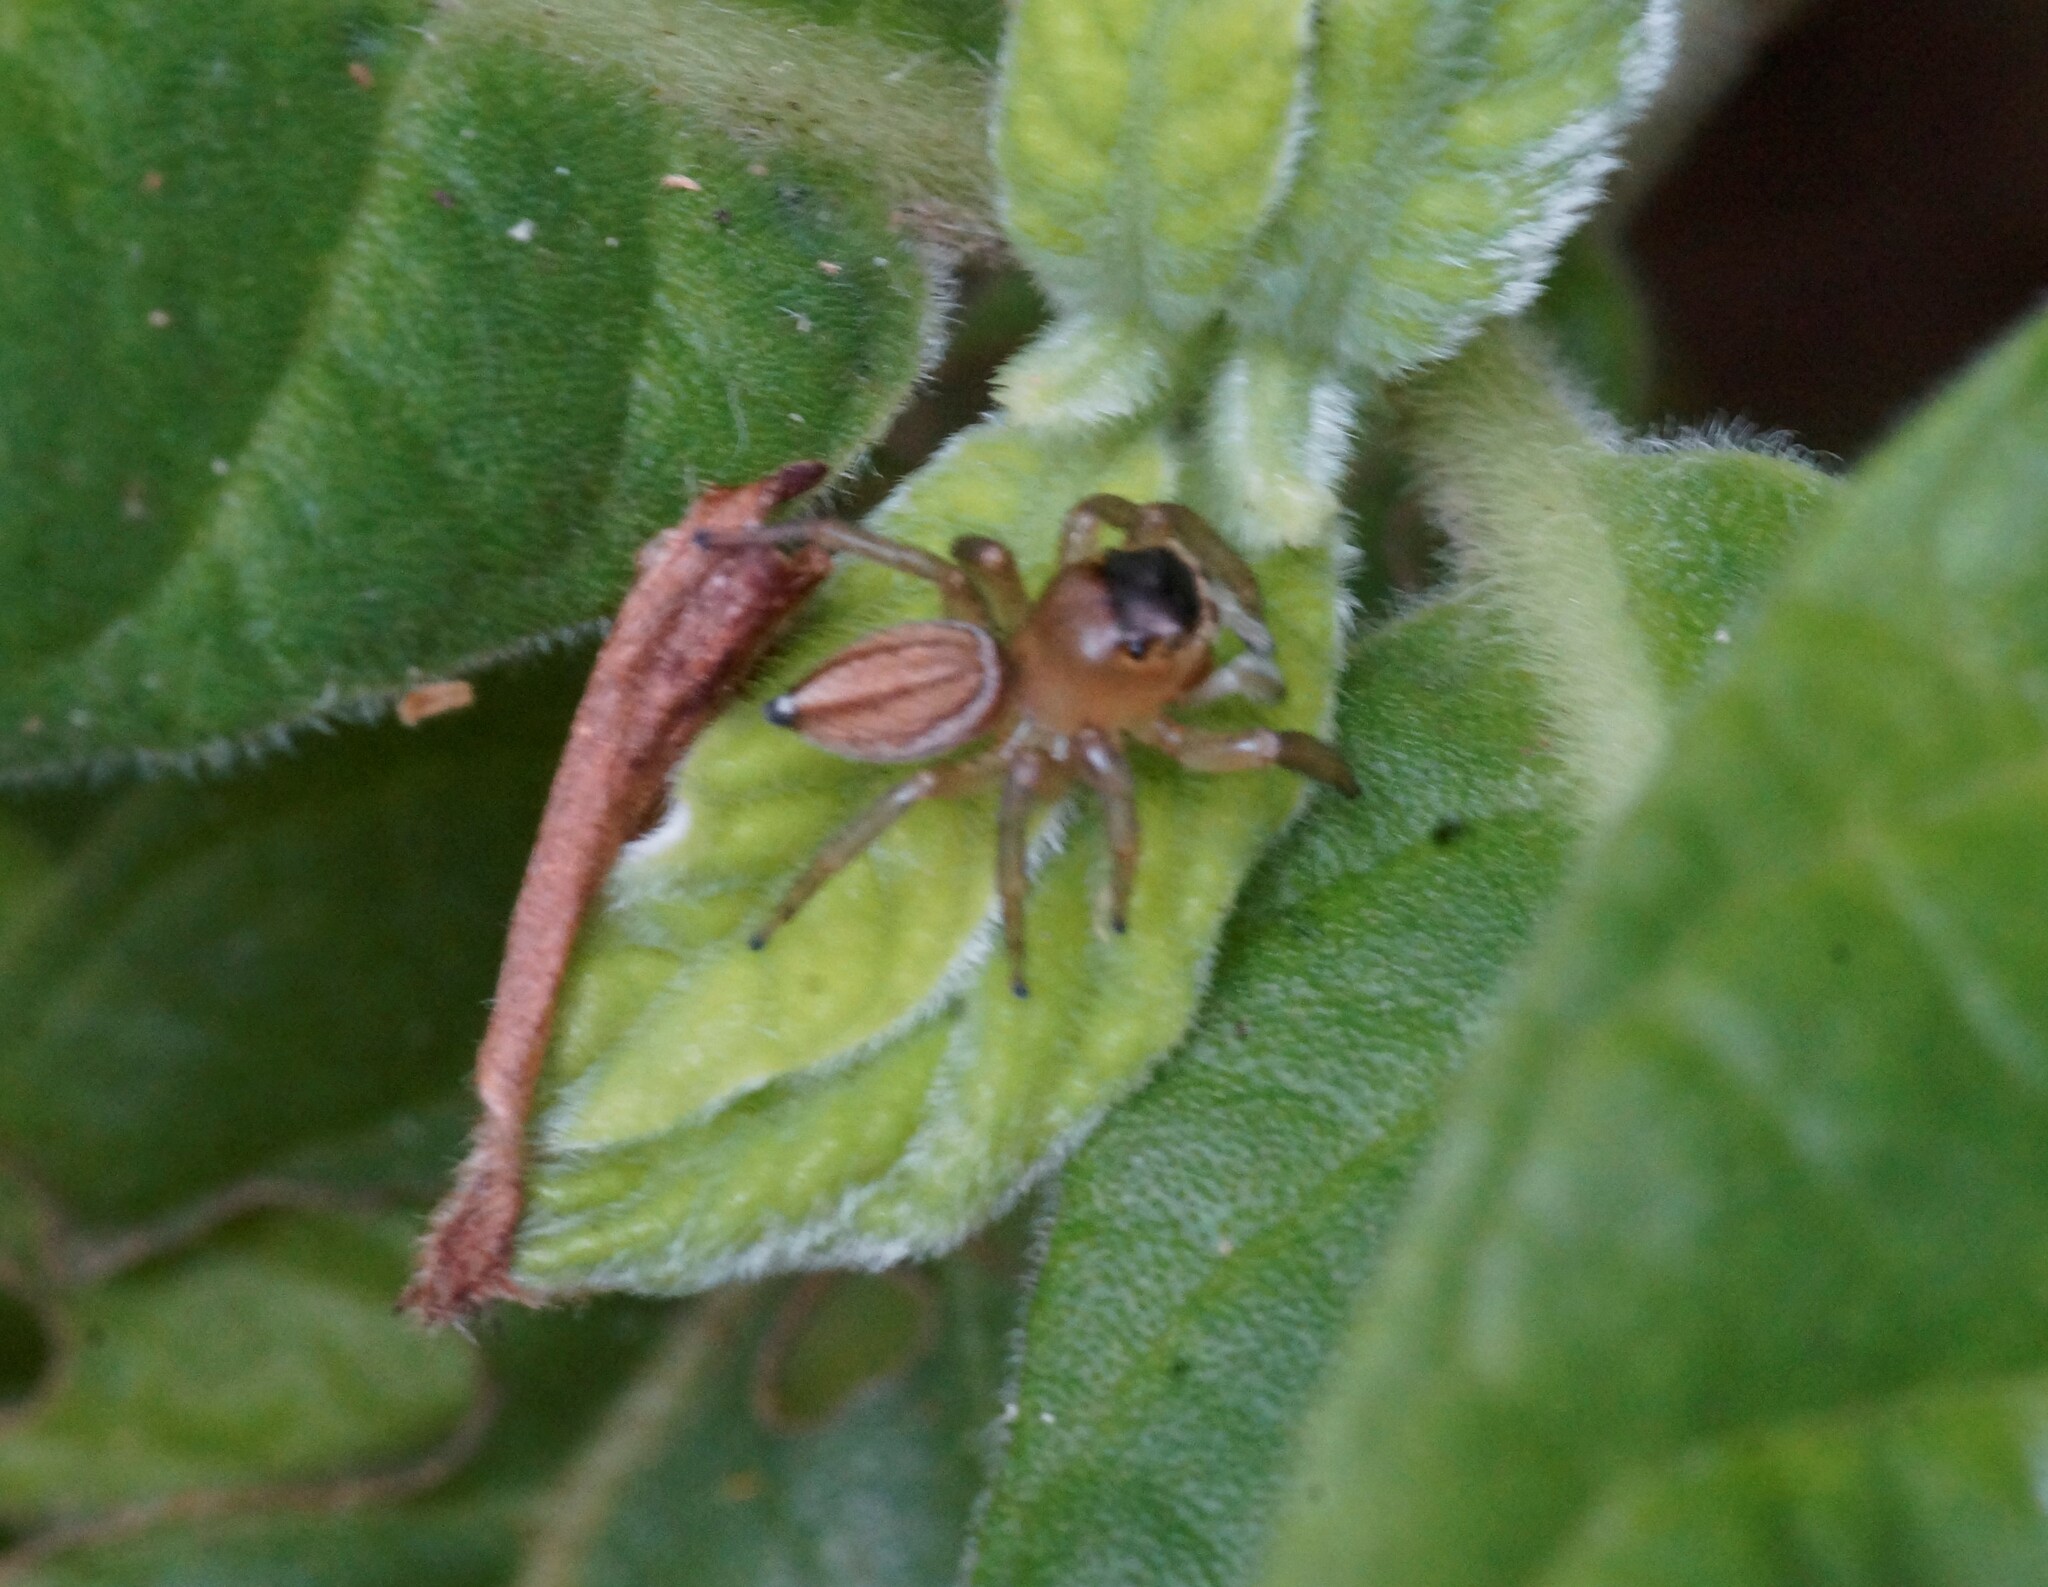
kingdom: Animalia
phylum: Arthropoda
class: Arachnida
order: Araneae
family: Salticidae
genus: Maratus
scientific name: Maratus scutulatus
